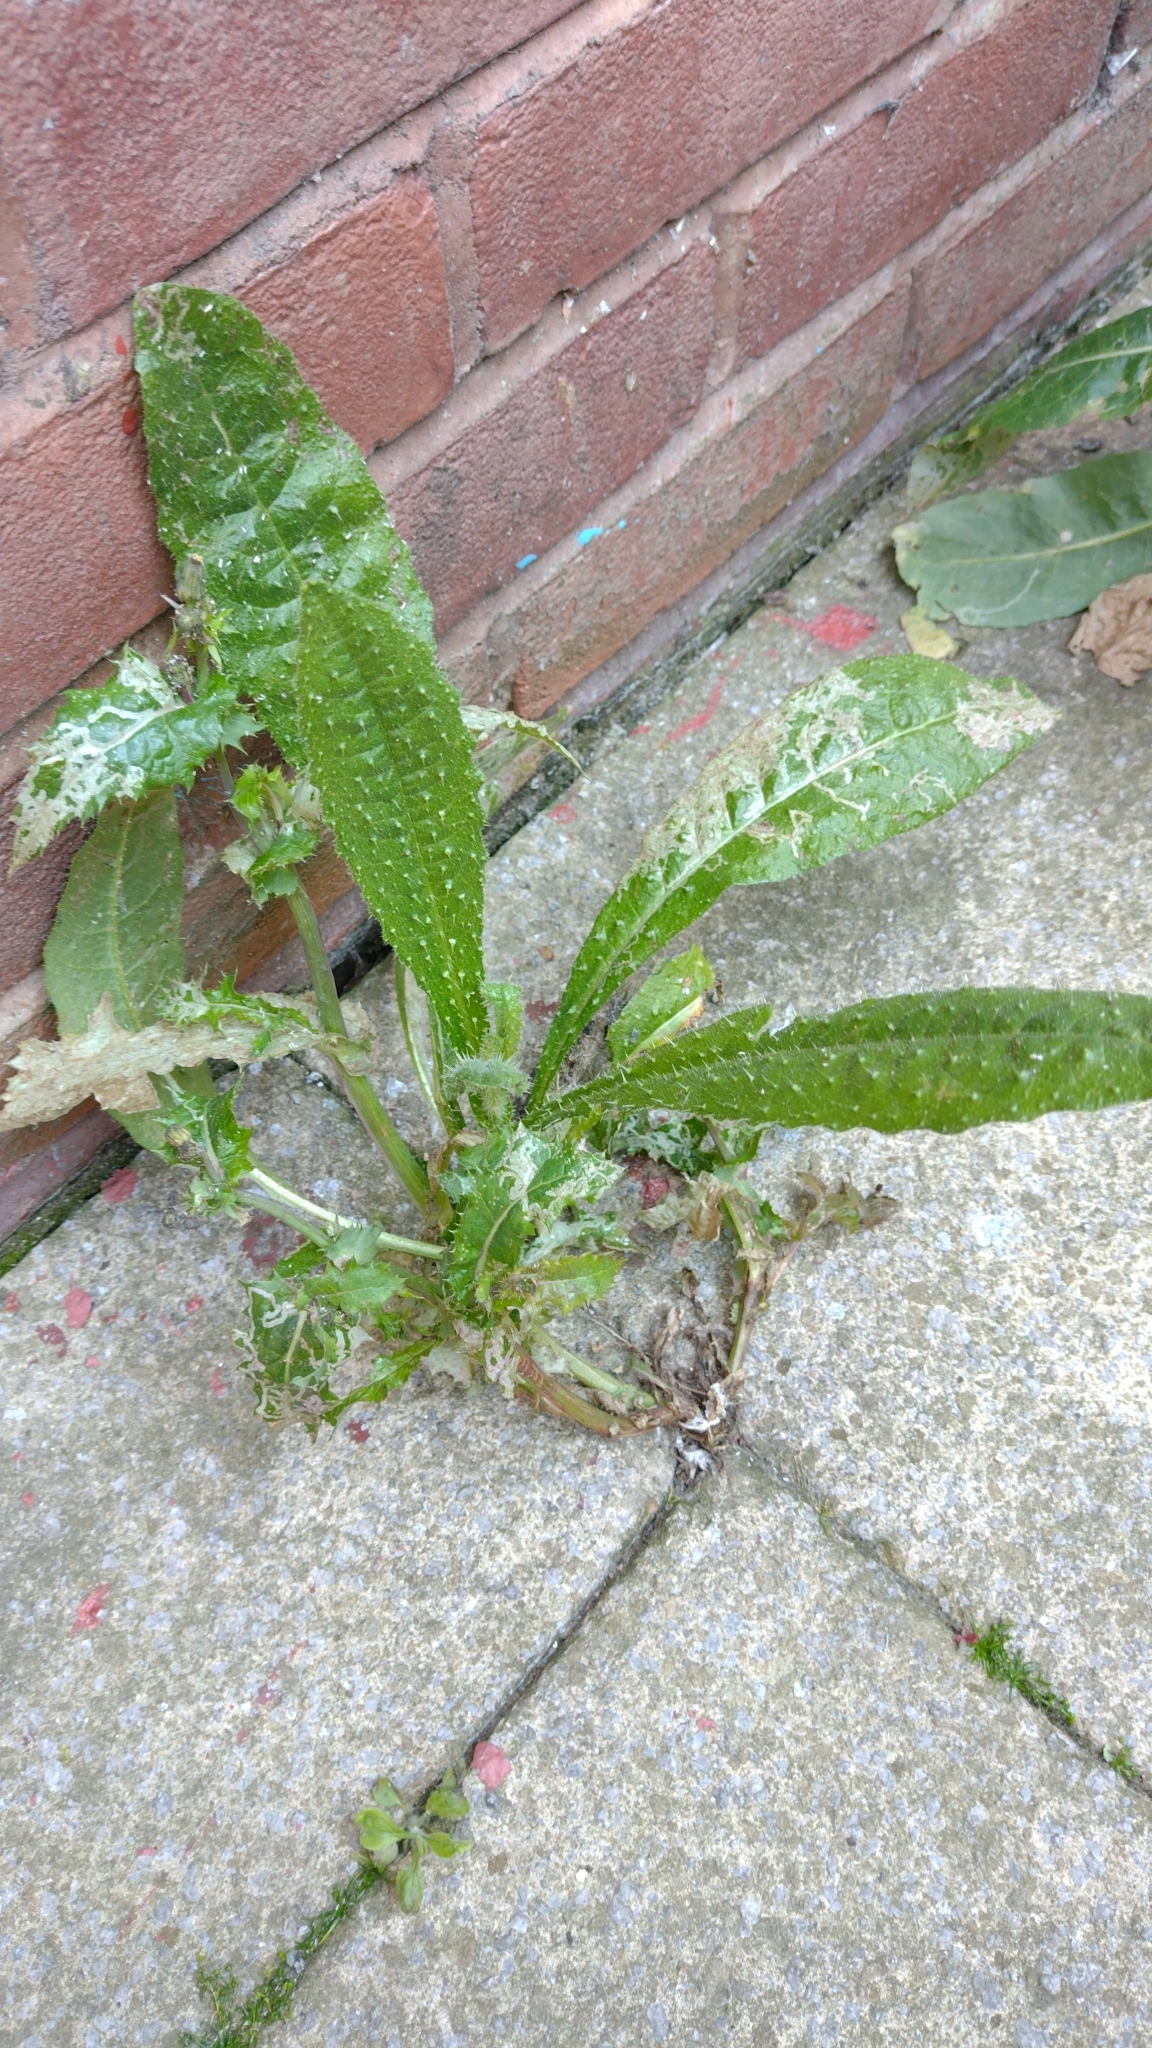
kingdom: Plantae
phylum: Tracheophyta
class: Magnoliopsida
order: Asterales
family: Asteraceae
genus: Helminthotheca
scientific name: Helminthotheca echioides
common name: Ox-tongue
